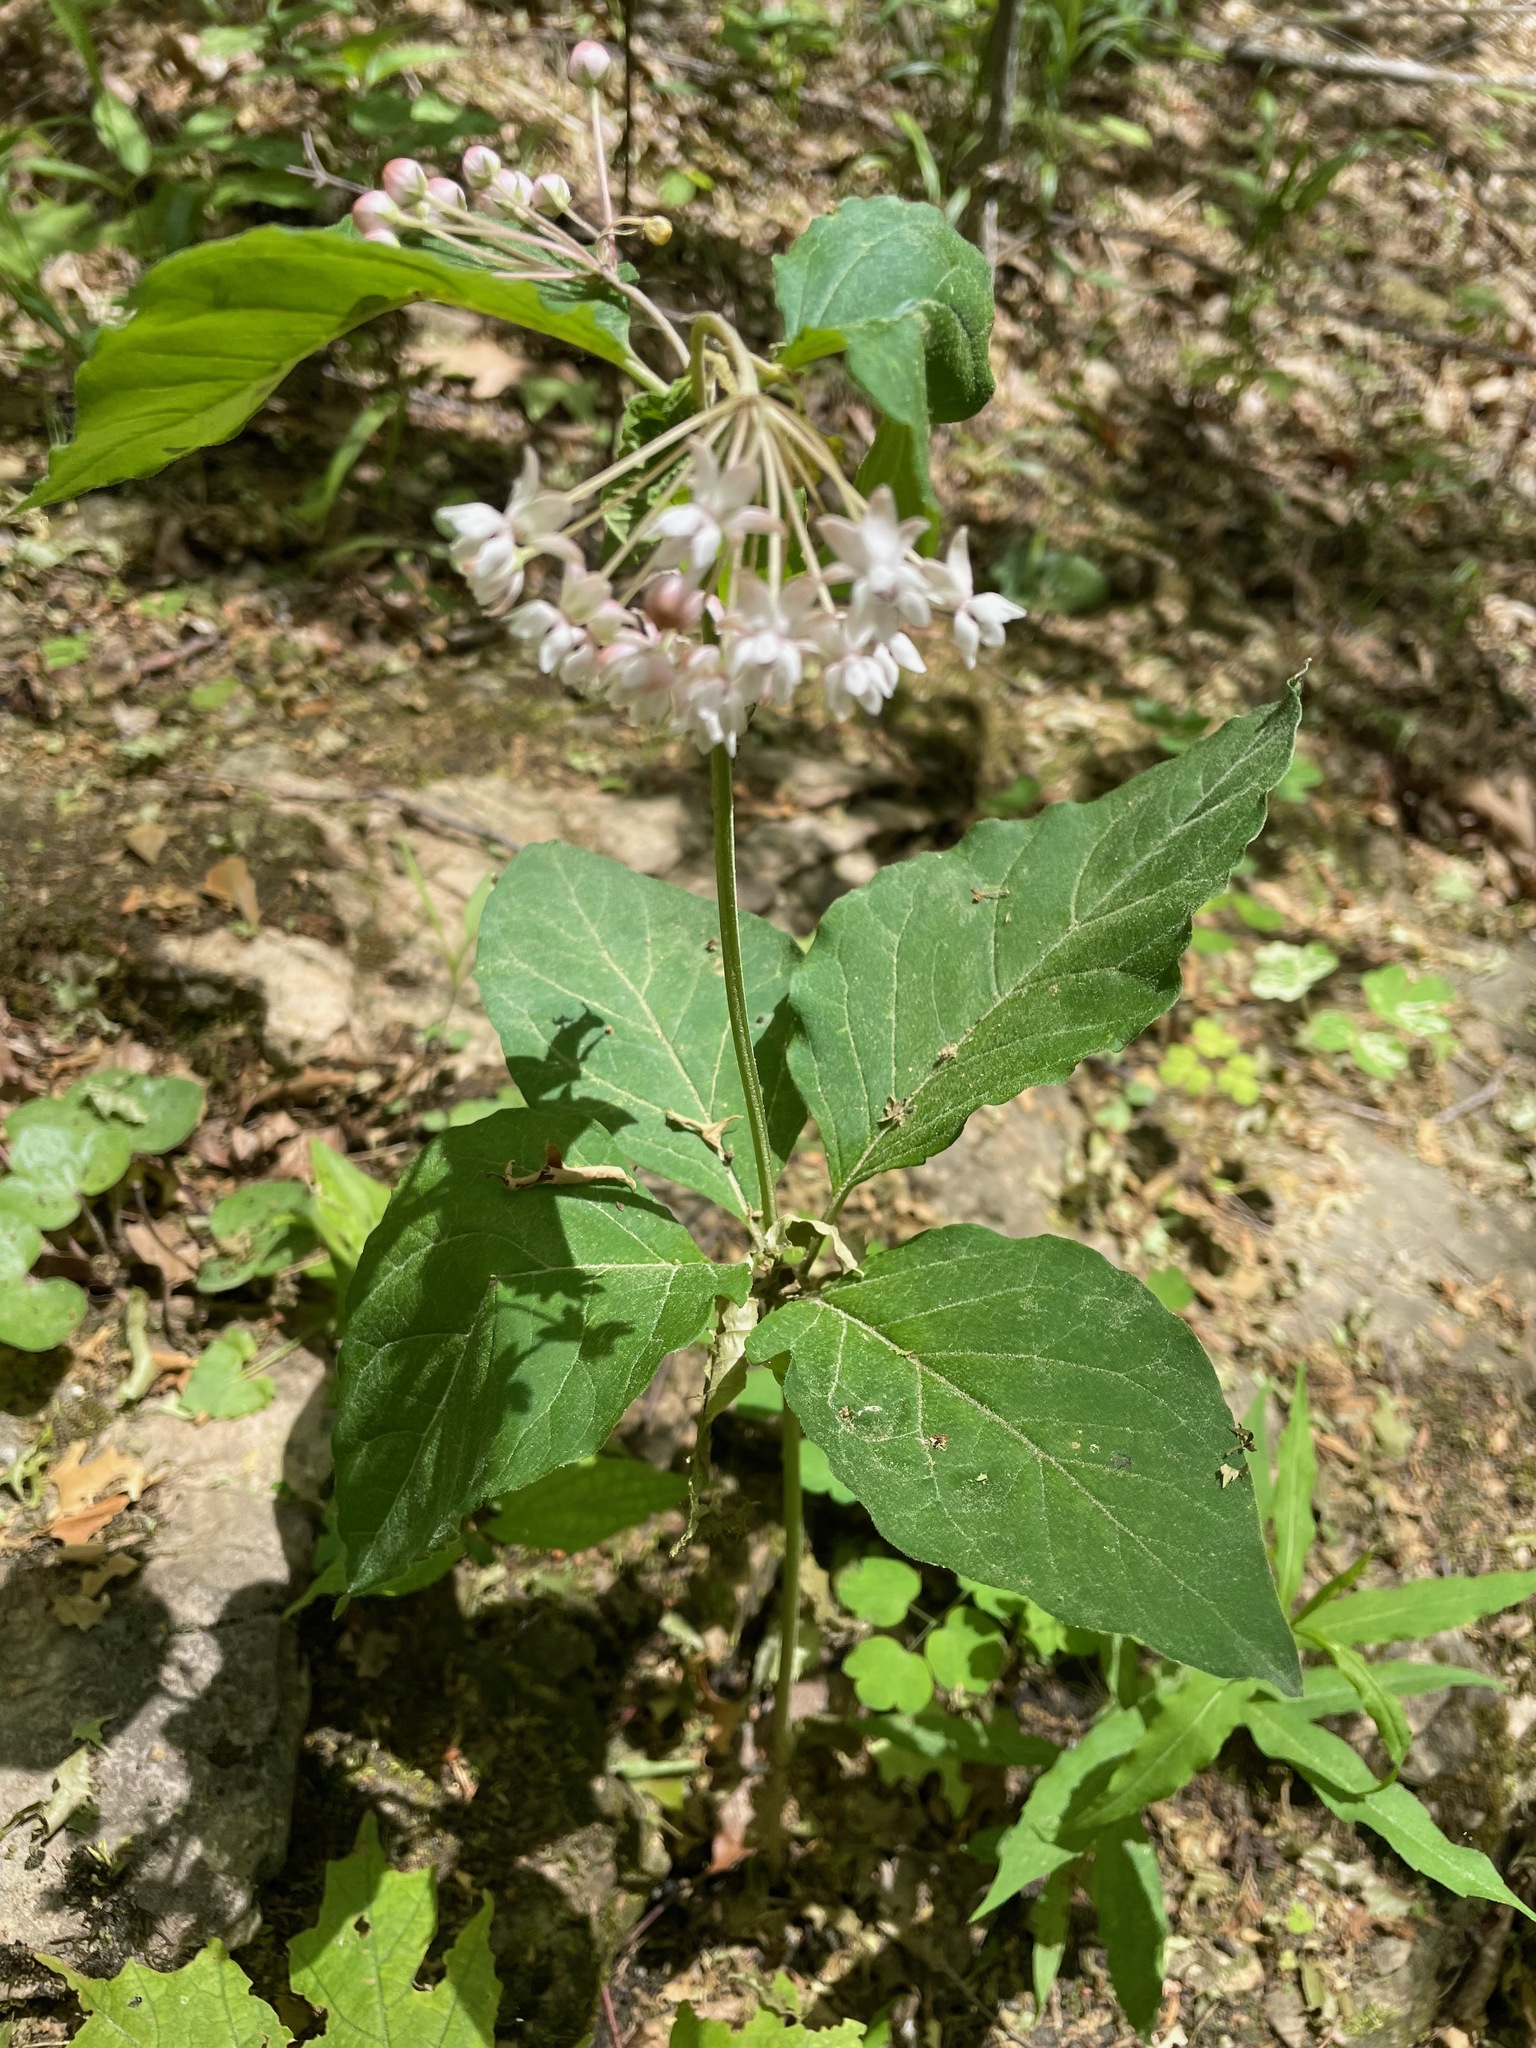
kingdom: Plantae
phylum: Tracheophyta
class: Magnoliopsida
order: Gentianales
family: Apocynaceae
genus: Asclepias
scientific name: Asclepias quadrifolia
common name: Whorled milkweed
